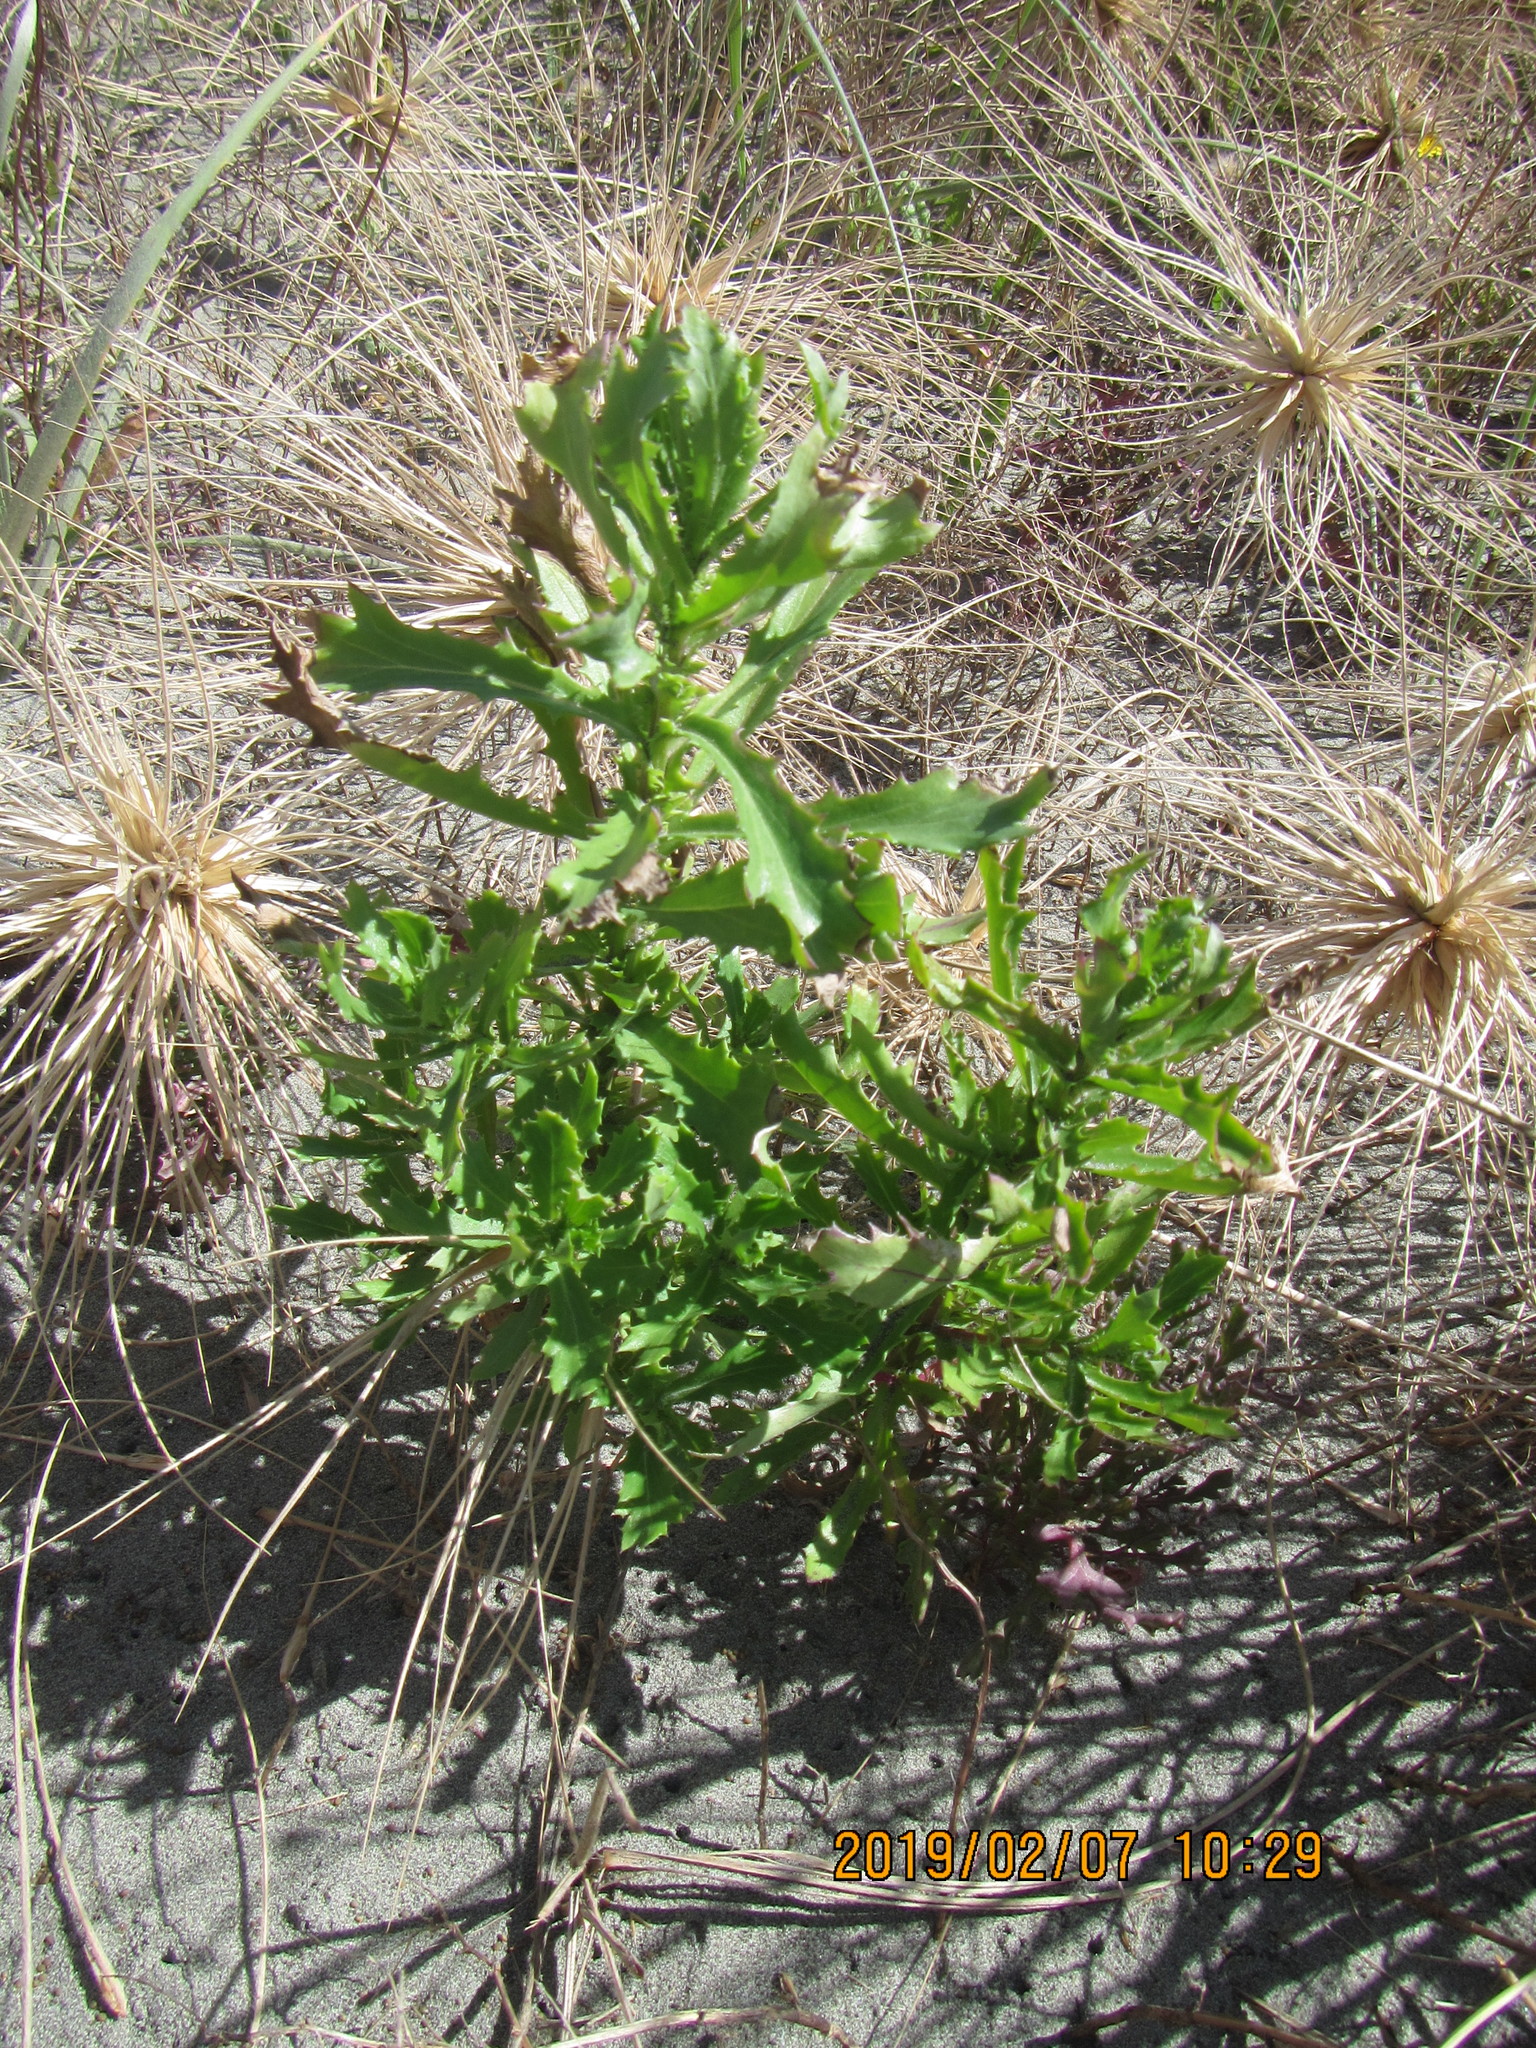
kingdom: Plantae
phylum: Tracheophyta
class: Magnoliopsida
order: Asterales
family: Asteraceae
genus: Senecio
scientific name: Senecio glastifolius
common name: Woad-leaved ragwort
